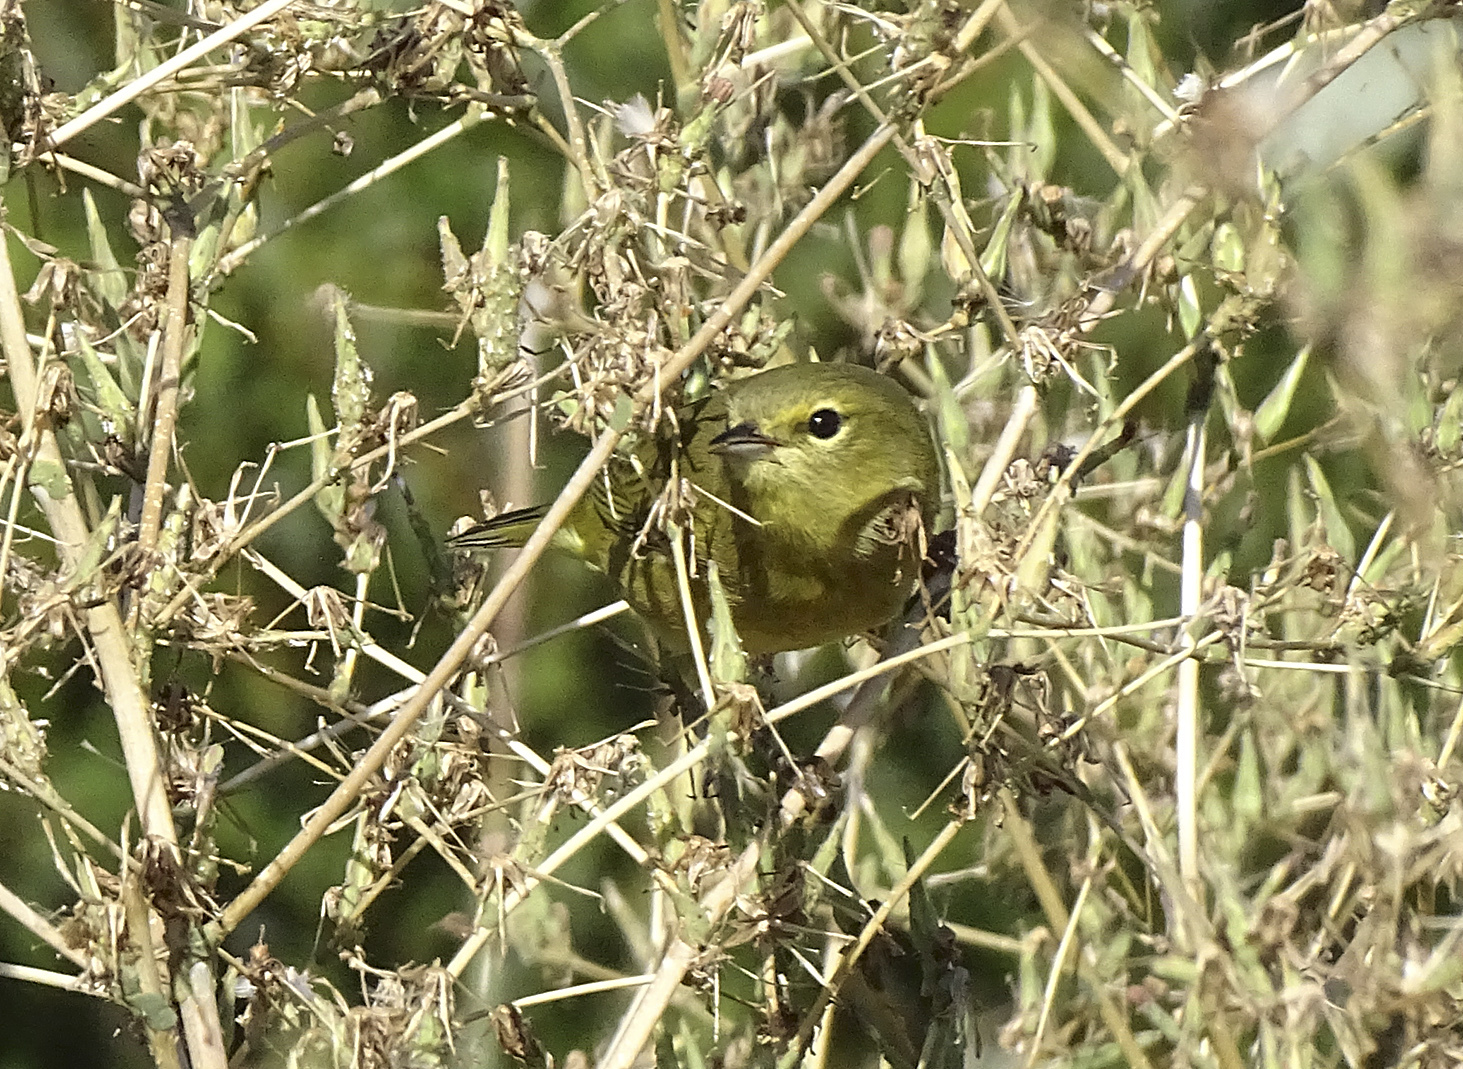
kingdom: Animalia
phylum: Chordata
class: Aves
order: Passeriformes
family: Parulidae
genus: Leiothlypis
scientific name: Leiothlypis celata
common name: Orange-crowned warbler
